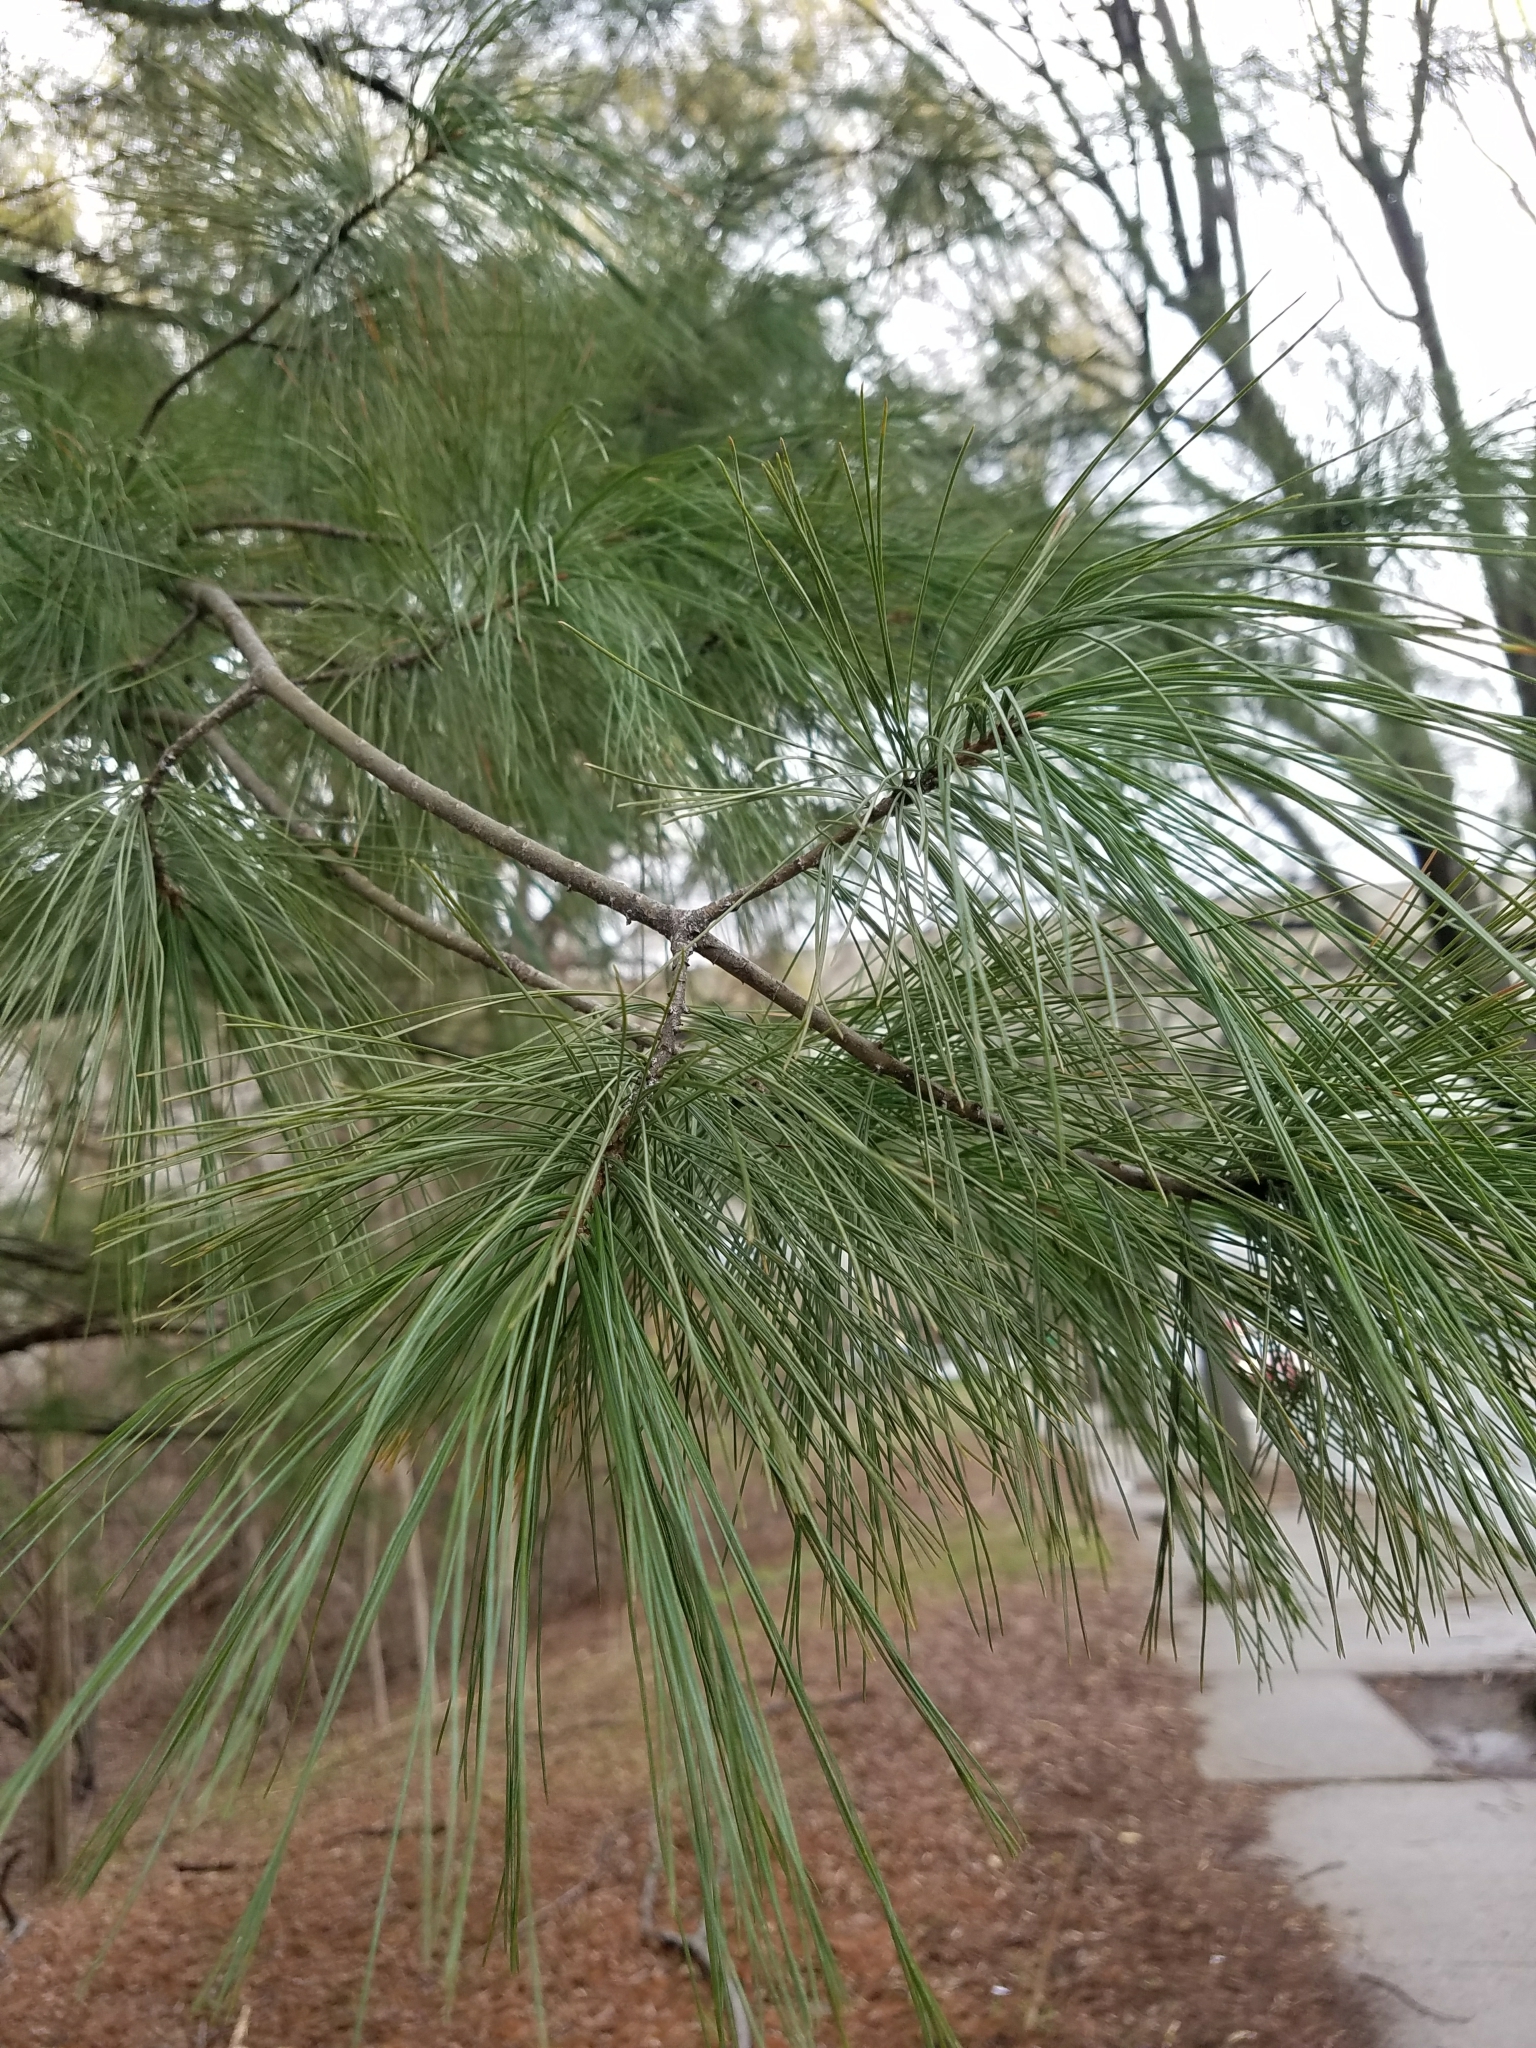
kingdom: Plantae
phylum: Tracheophyta
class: Pinopsida
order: Pinales
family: Pinaceae
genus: Pinus
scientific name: Pinus strobus
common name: Weymouth pine
